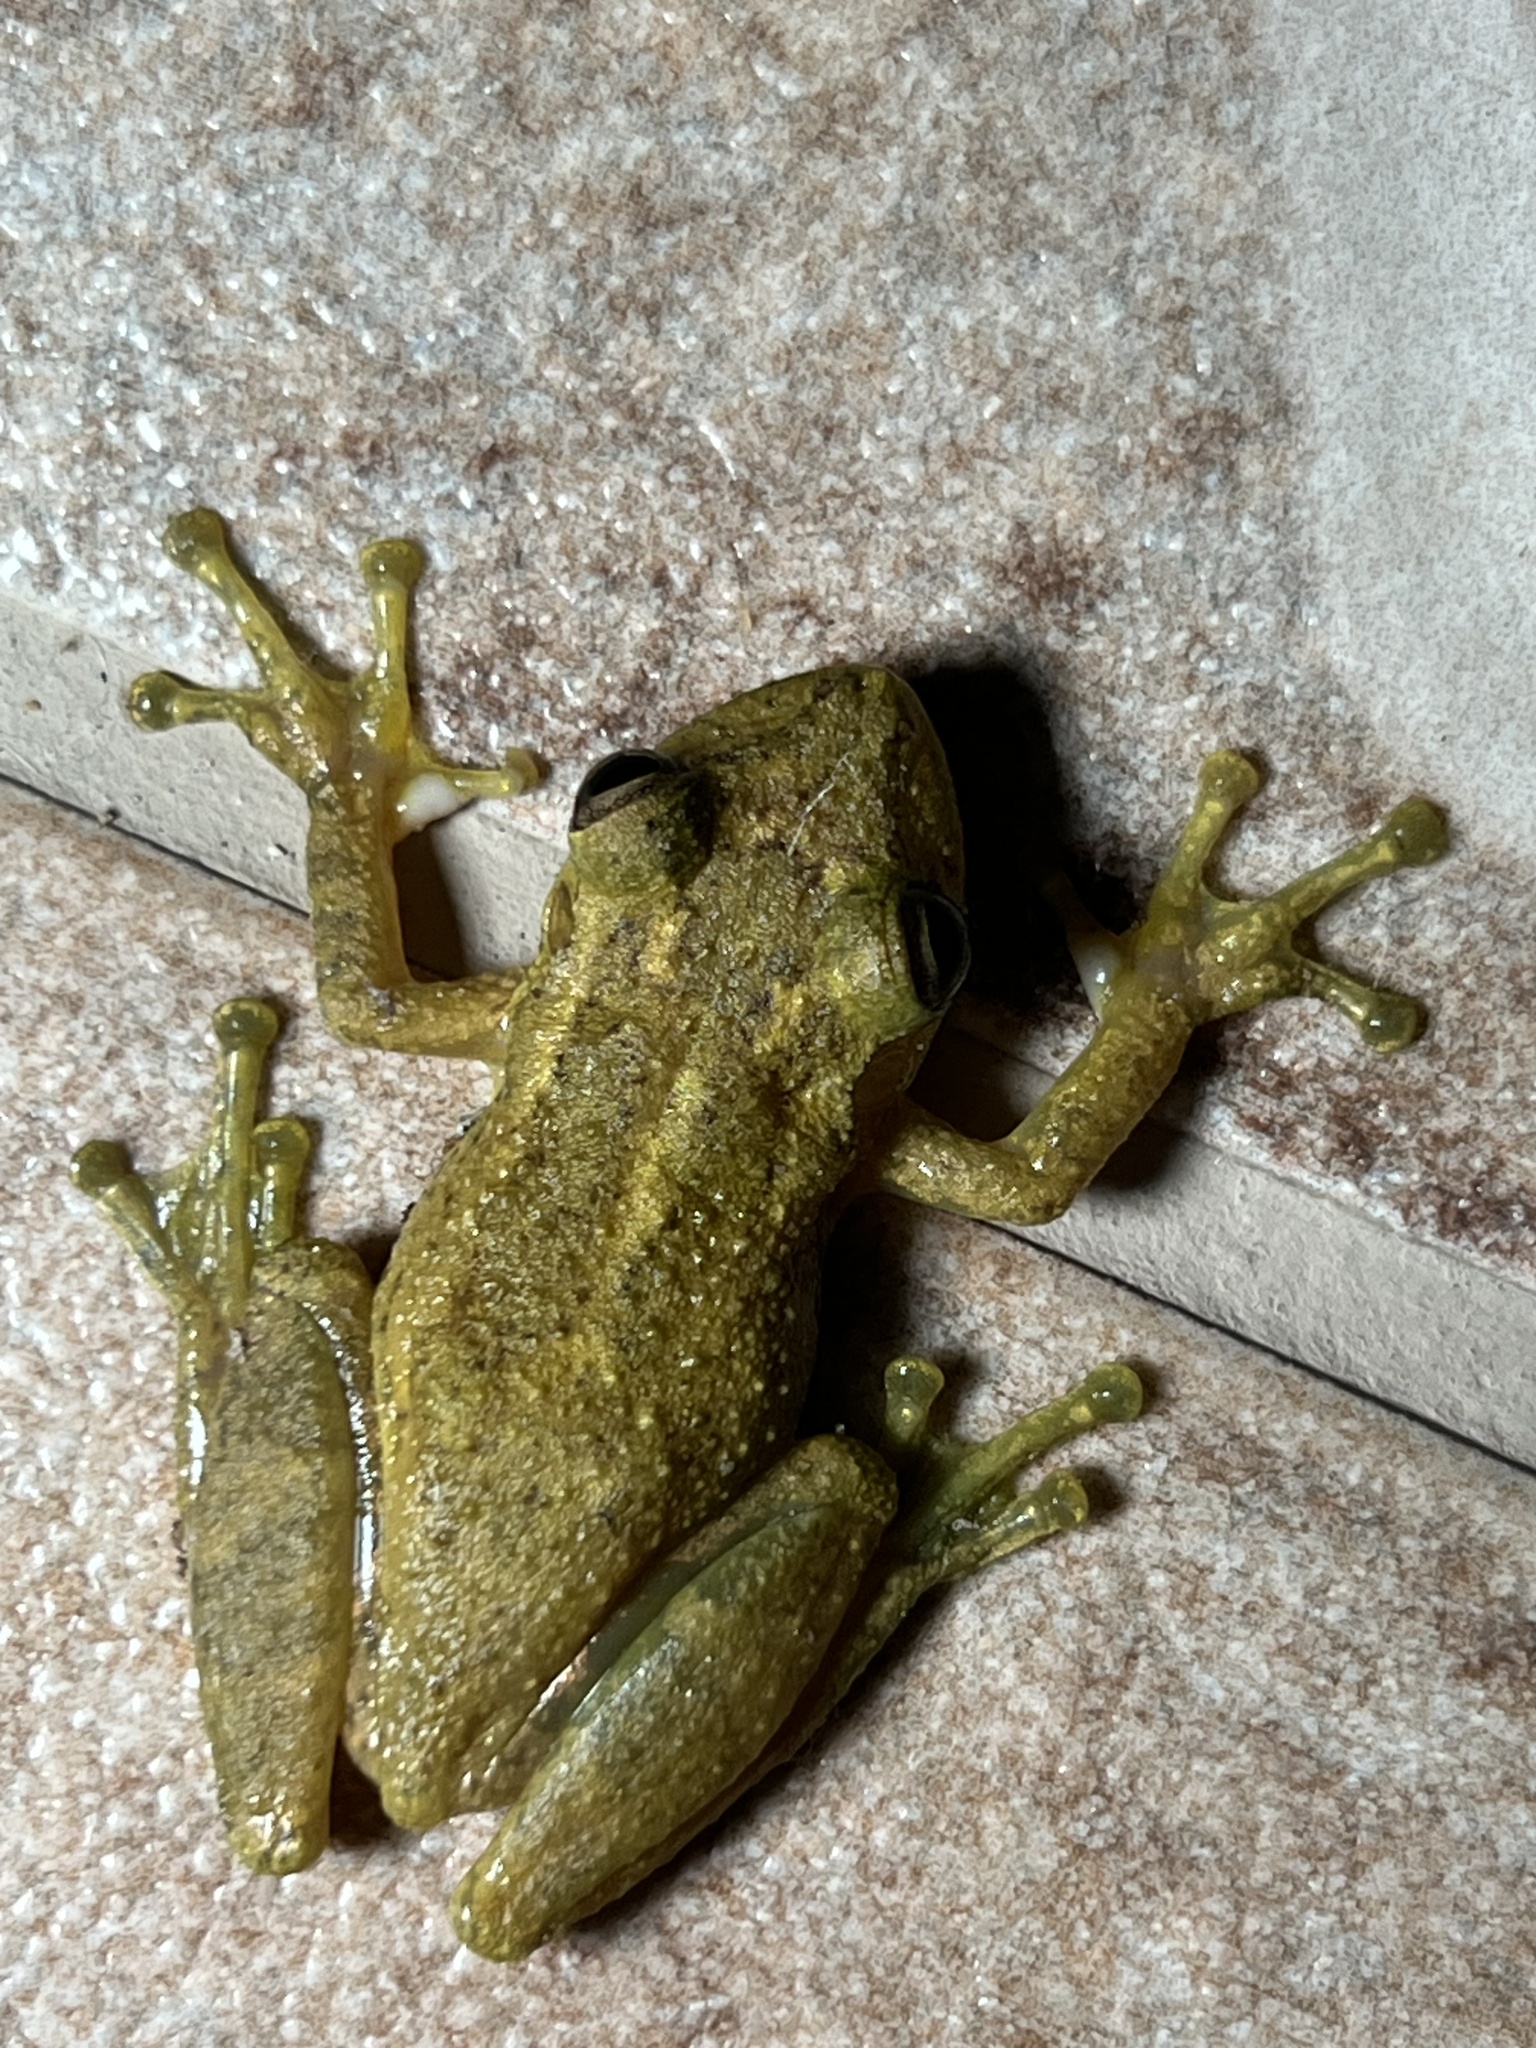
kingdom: Animalia
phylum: Chordata
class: Amphibia
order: Anura
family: Hylidae
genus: Scinax
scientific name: Scinax perereca
